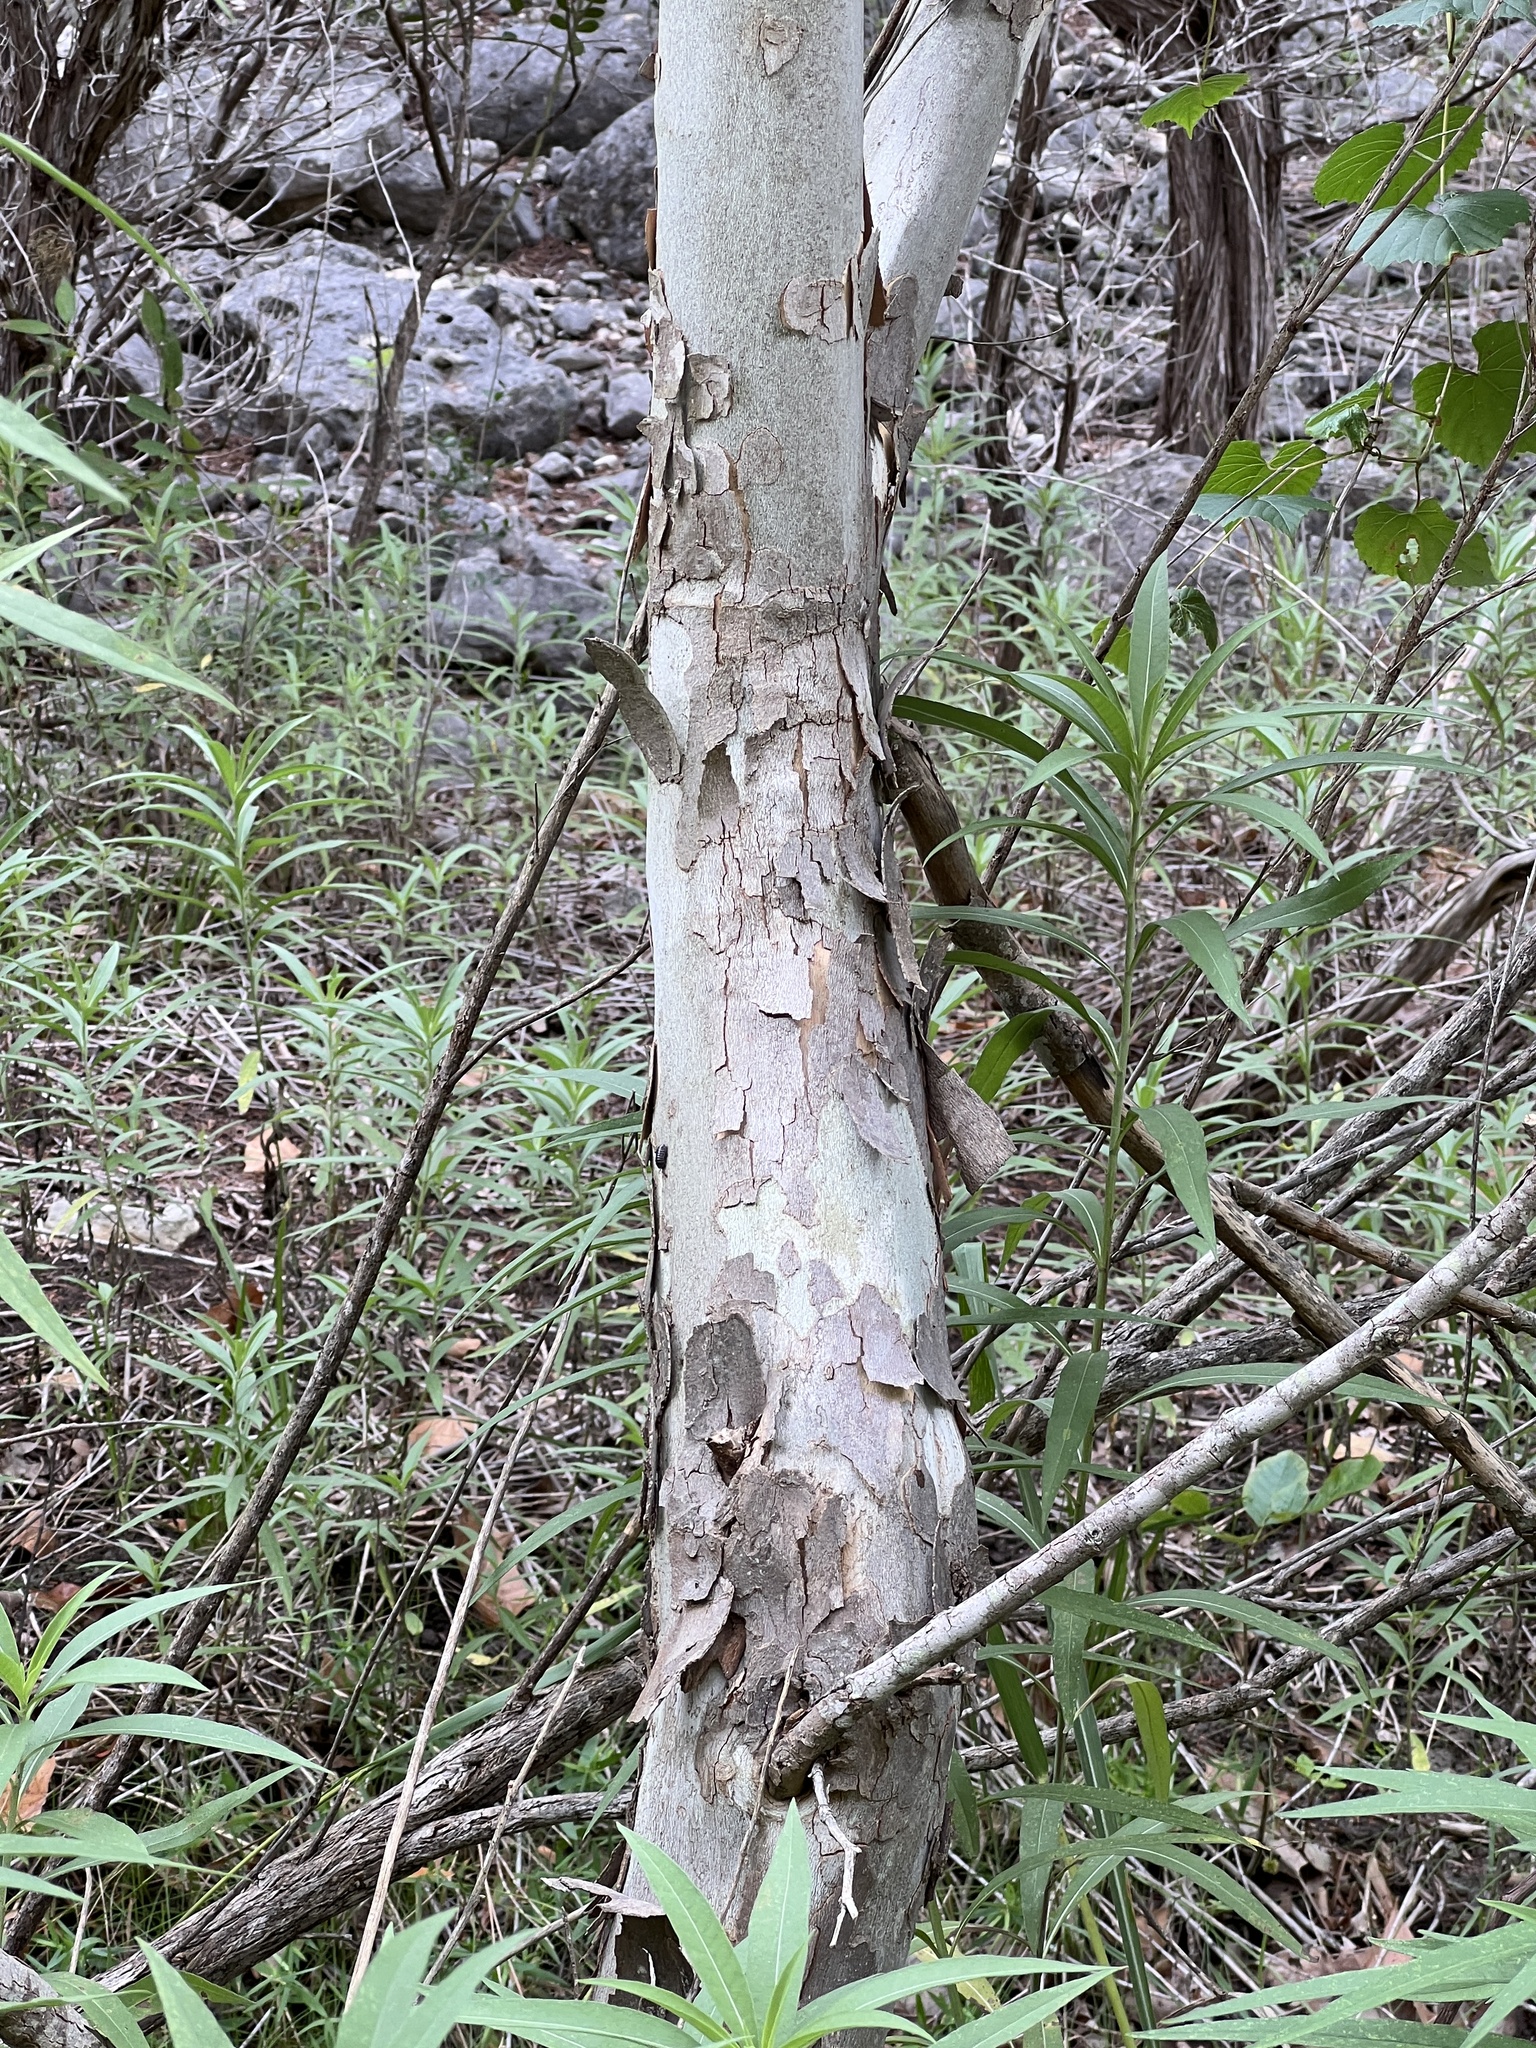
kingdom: Plantae
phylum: Tracheophyta
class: Magnoliopsida
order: Proteales
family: Platanaceae
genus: Platanus
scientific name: Platanus occidentalis
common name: American sycamore
